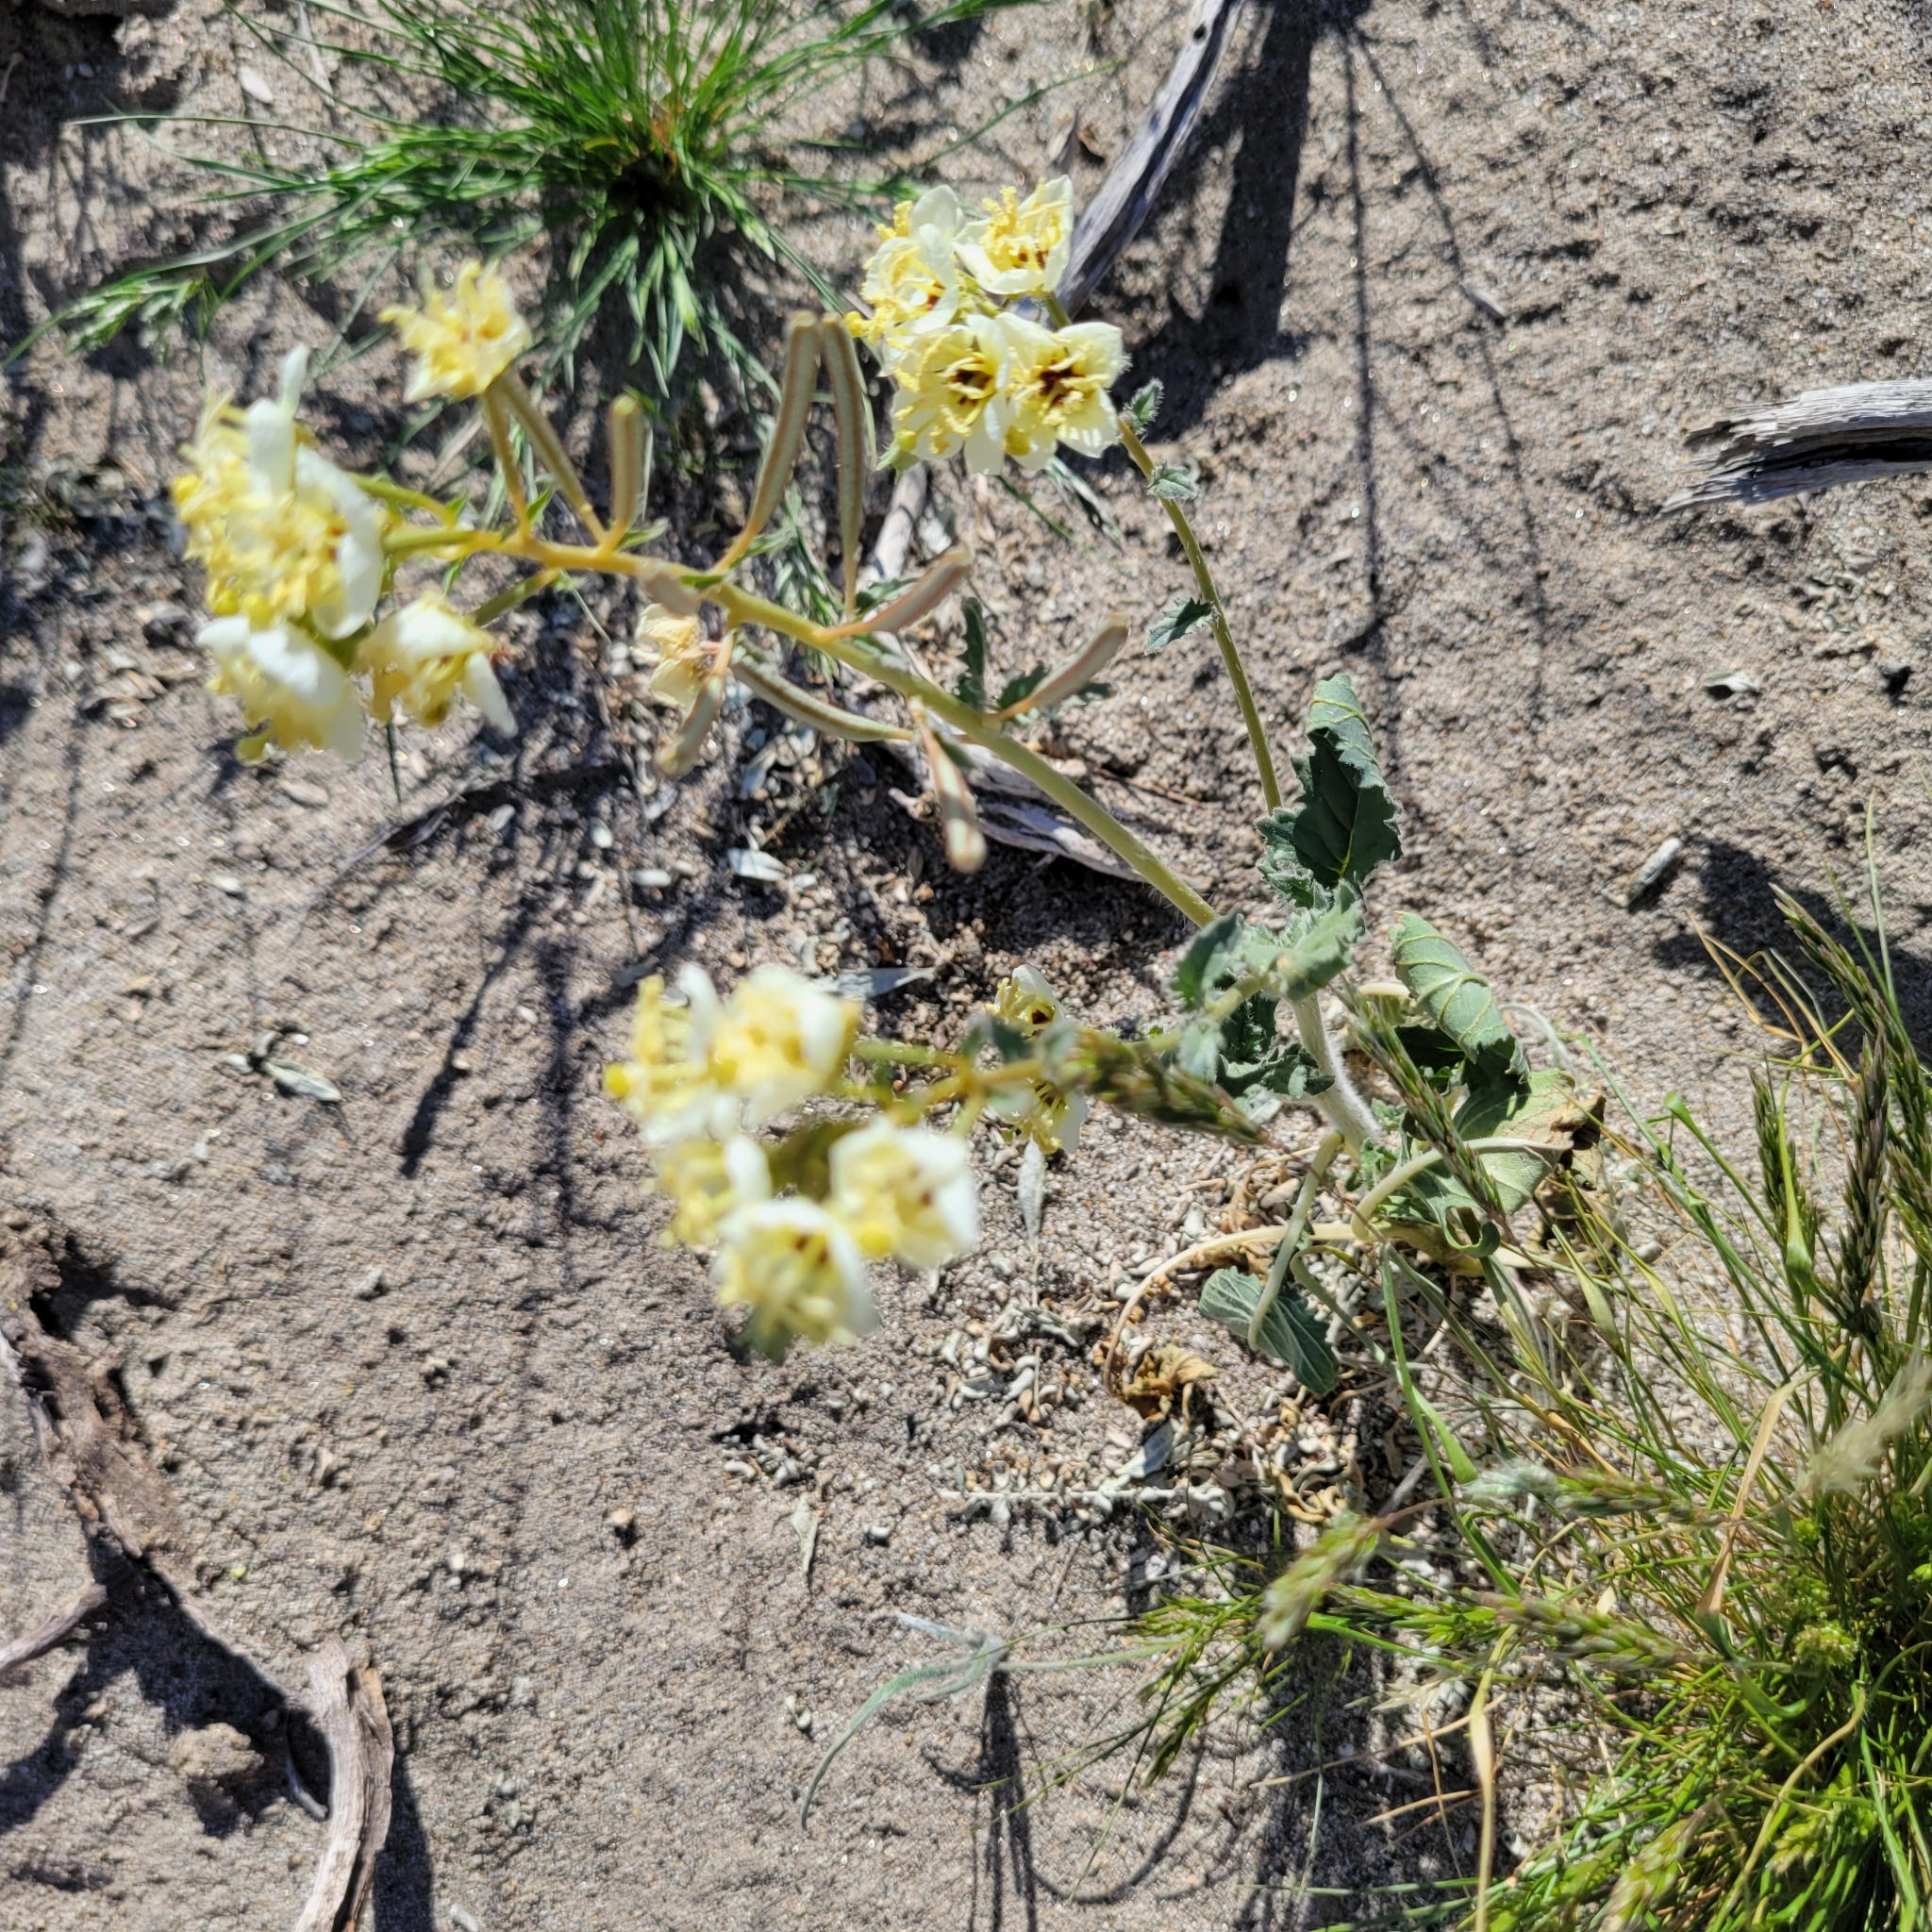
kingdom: Plantae
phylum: Tracheophyta
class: Magnoliopsida
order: Myrtales
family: Onagraceae
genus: Chylismia
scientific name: Chylismia claviformis
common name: Browneyes
